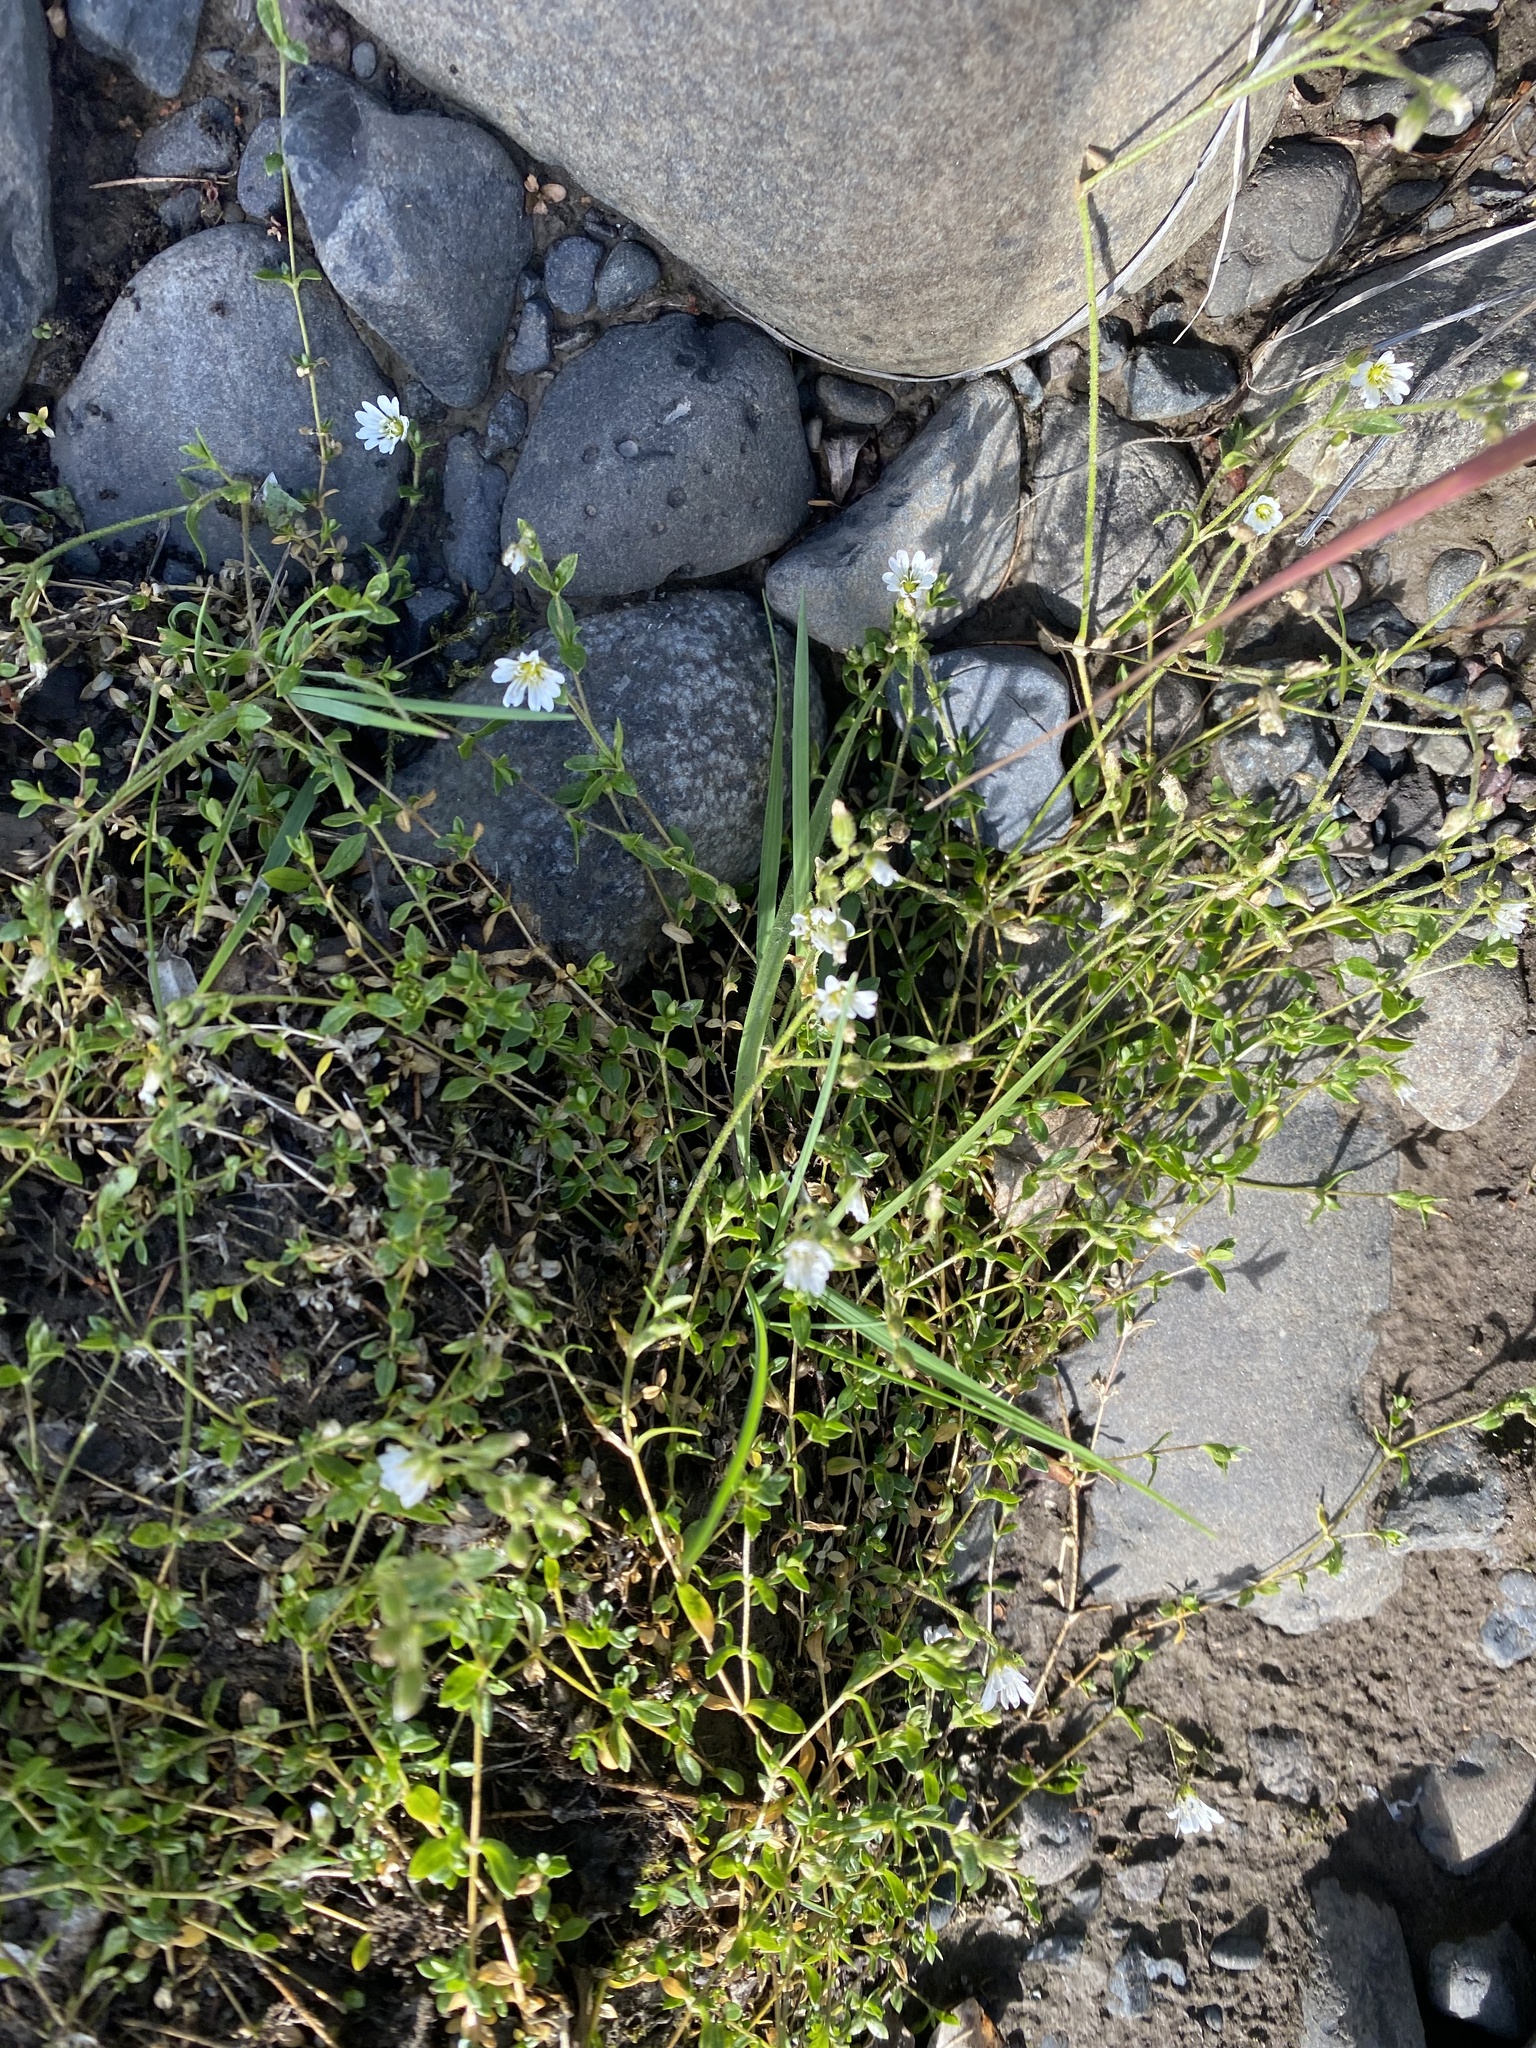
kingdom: Plantae
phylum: Tracheophyta
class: Magnoliopsida
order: Caryophyllales
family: Caryophyllaceae
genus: Cerastium
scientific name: Cerastium regelii
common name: Regel's chickweed
